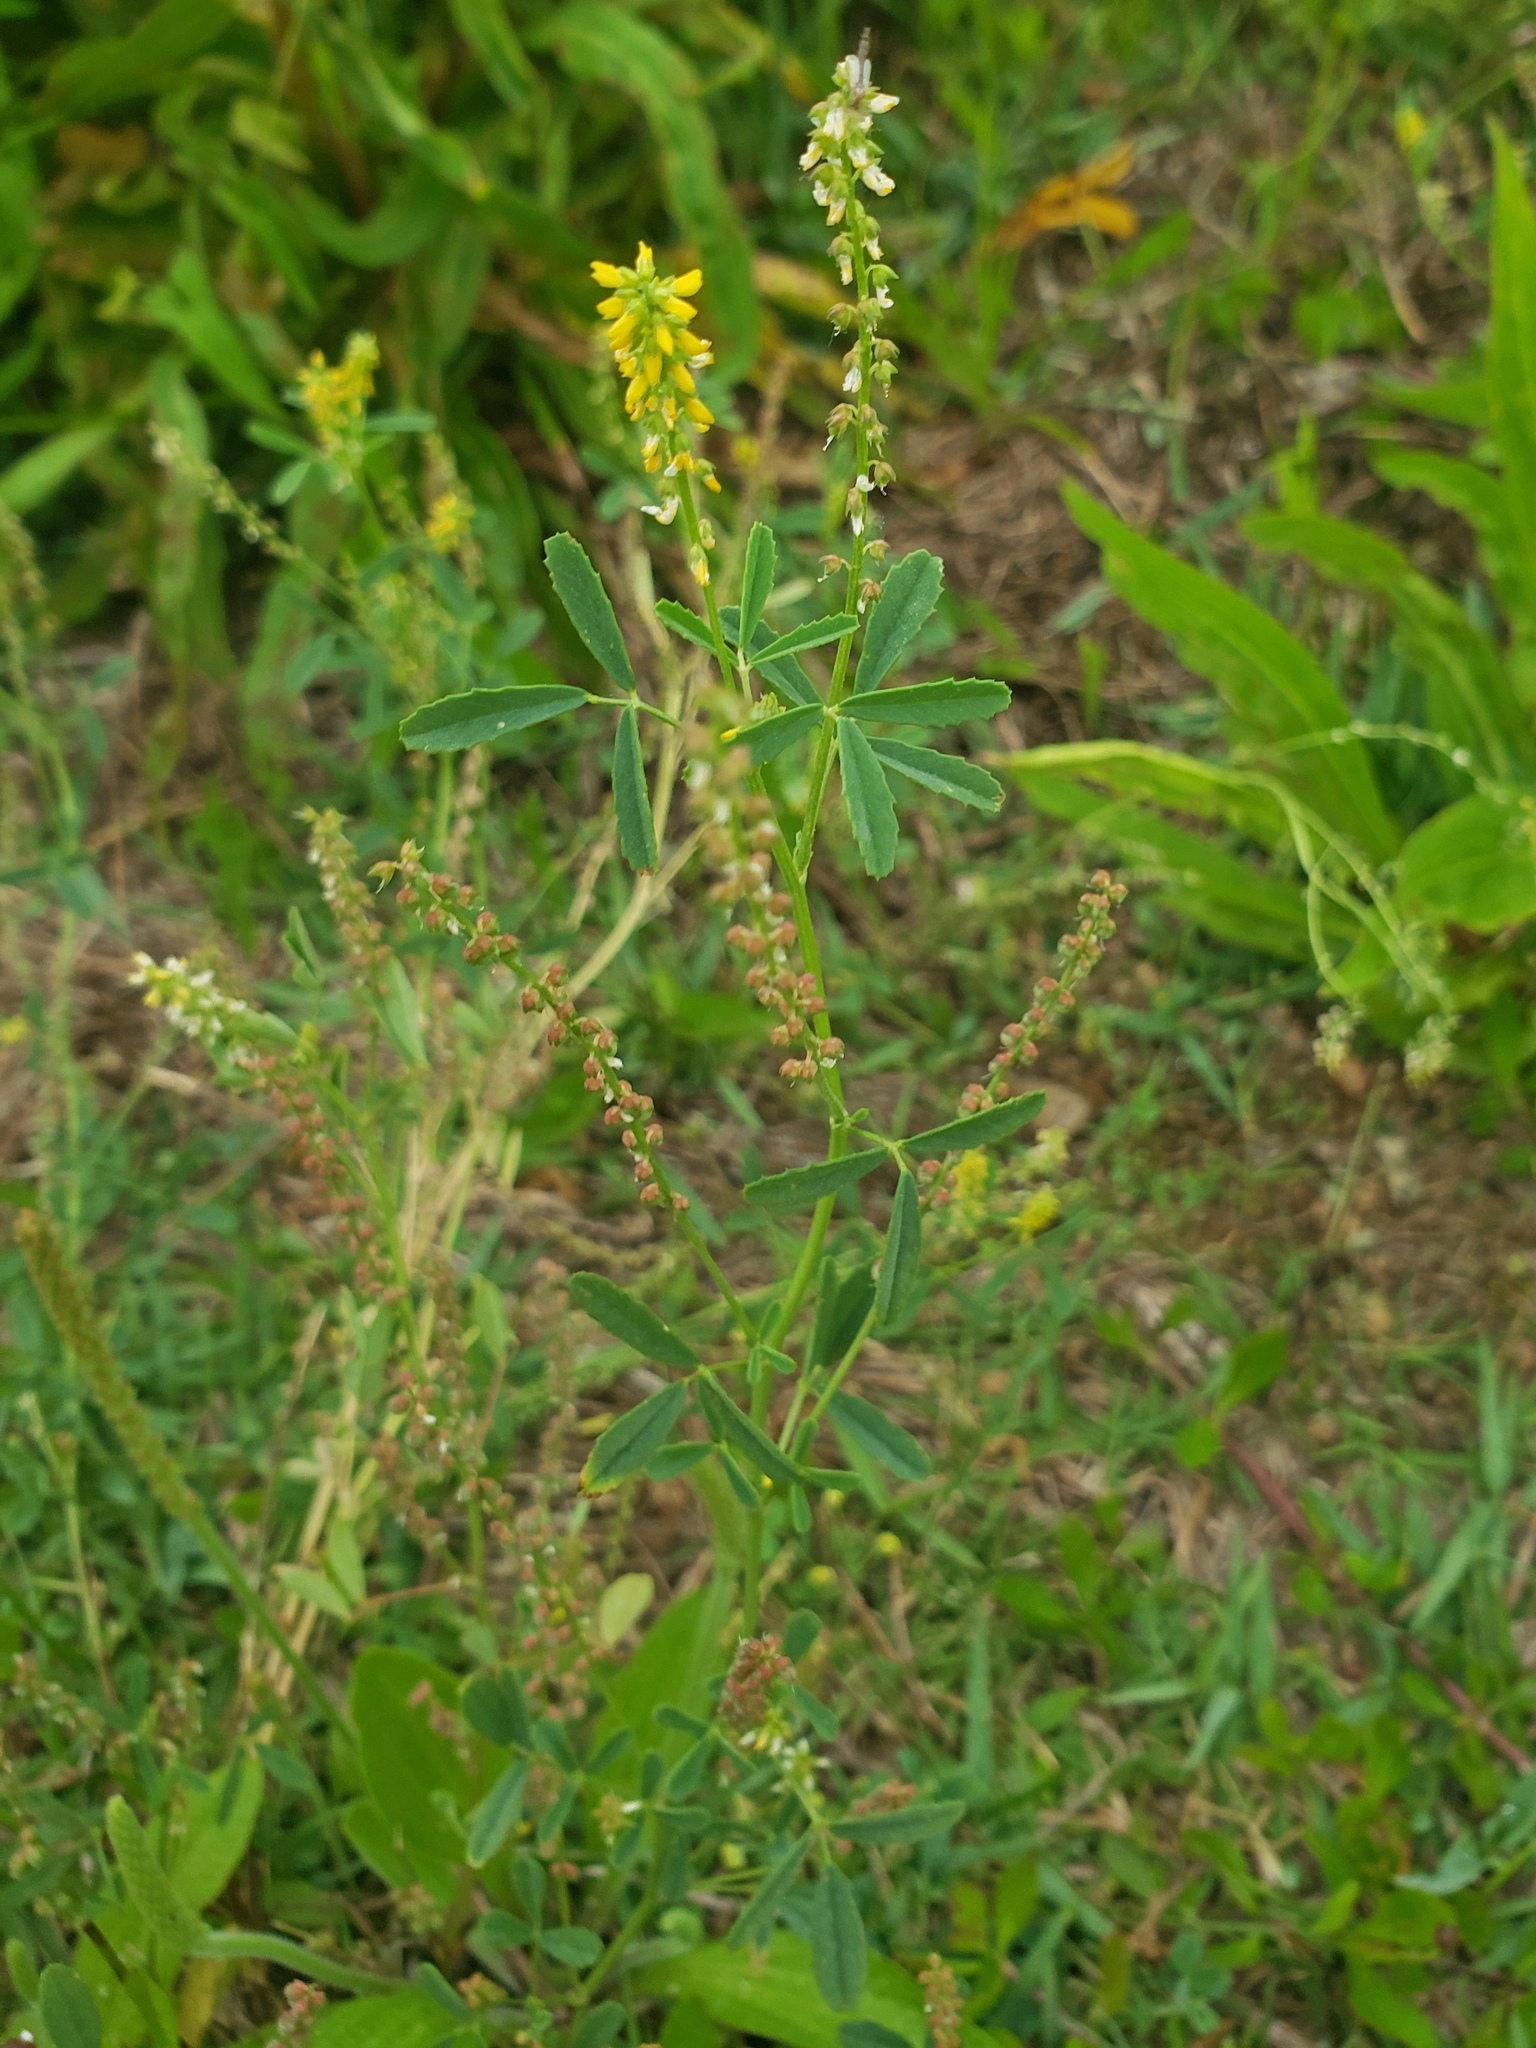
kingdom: Plantae
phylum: Tracheophyta
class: Magnoliopsida
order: Fabales
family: Fabaceae
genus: Melilotus
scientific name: Melilotus indicus
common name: Small melilot
